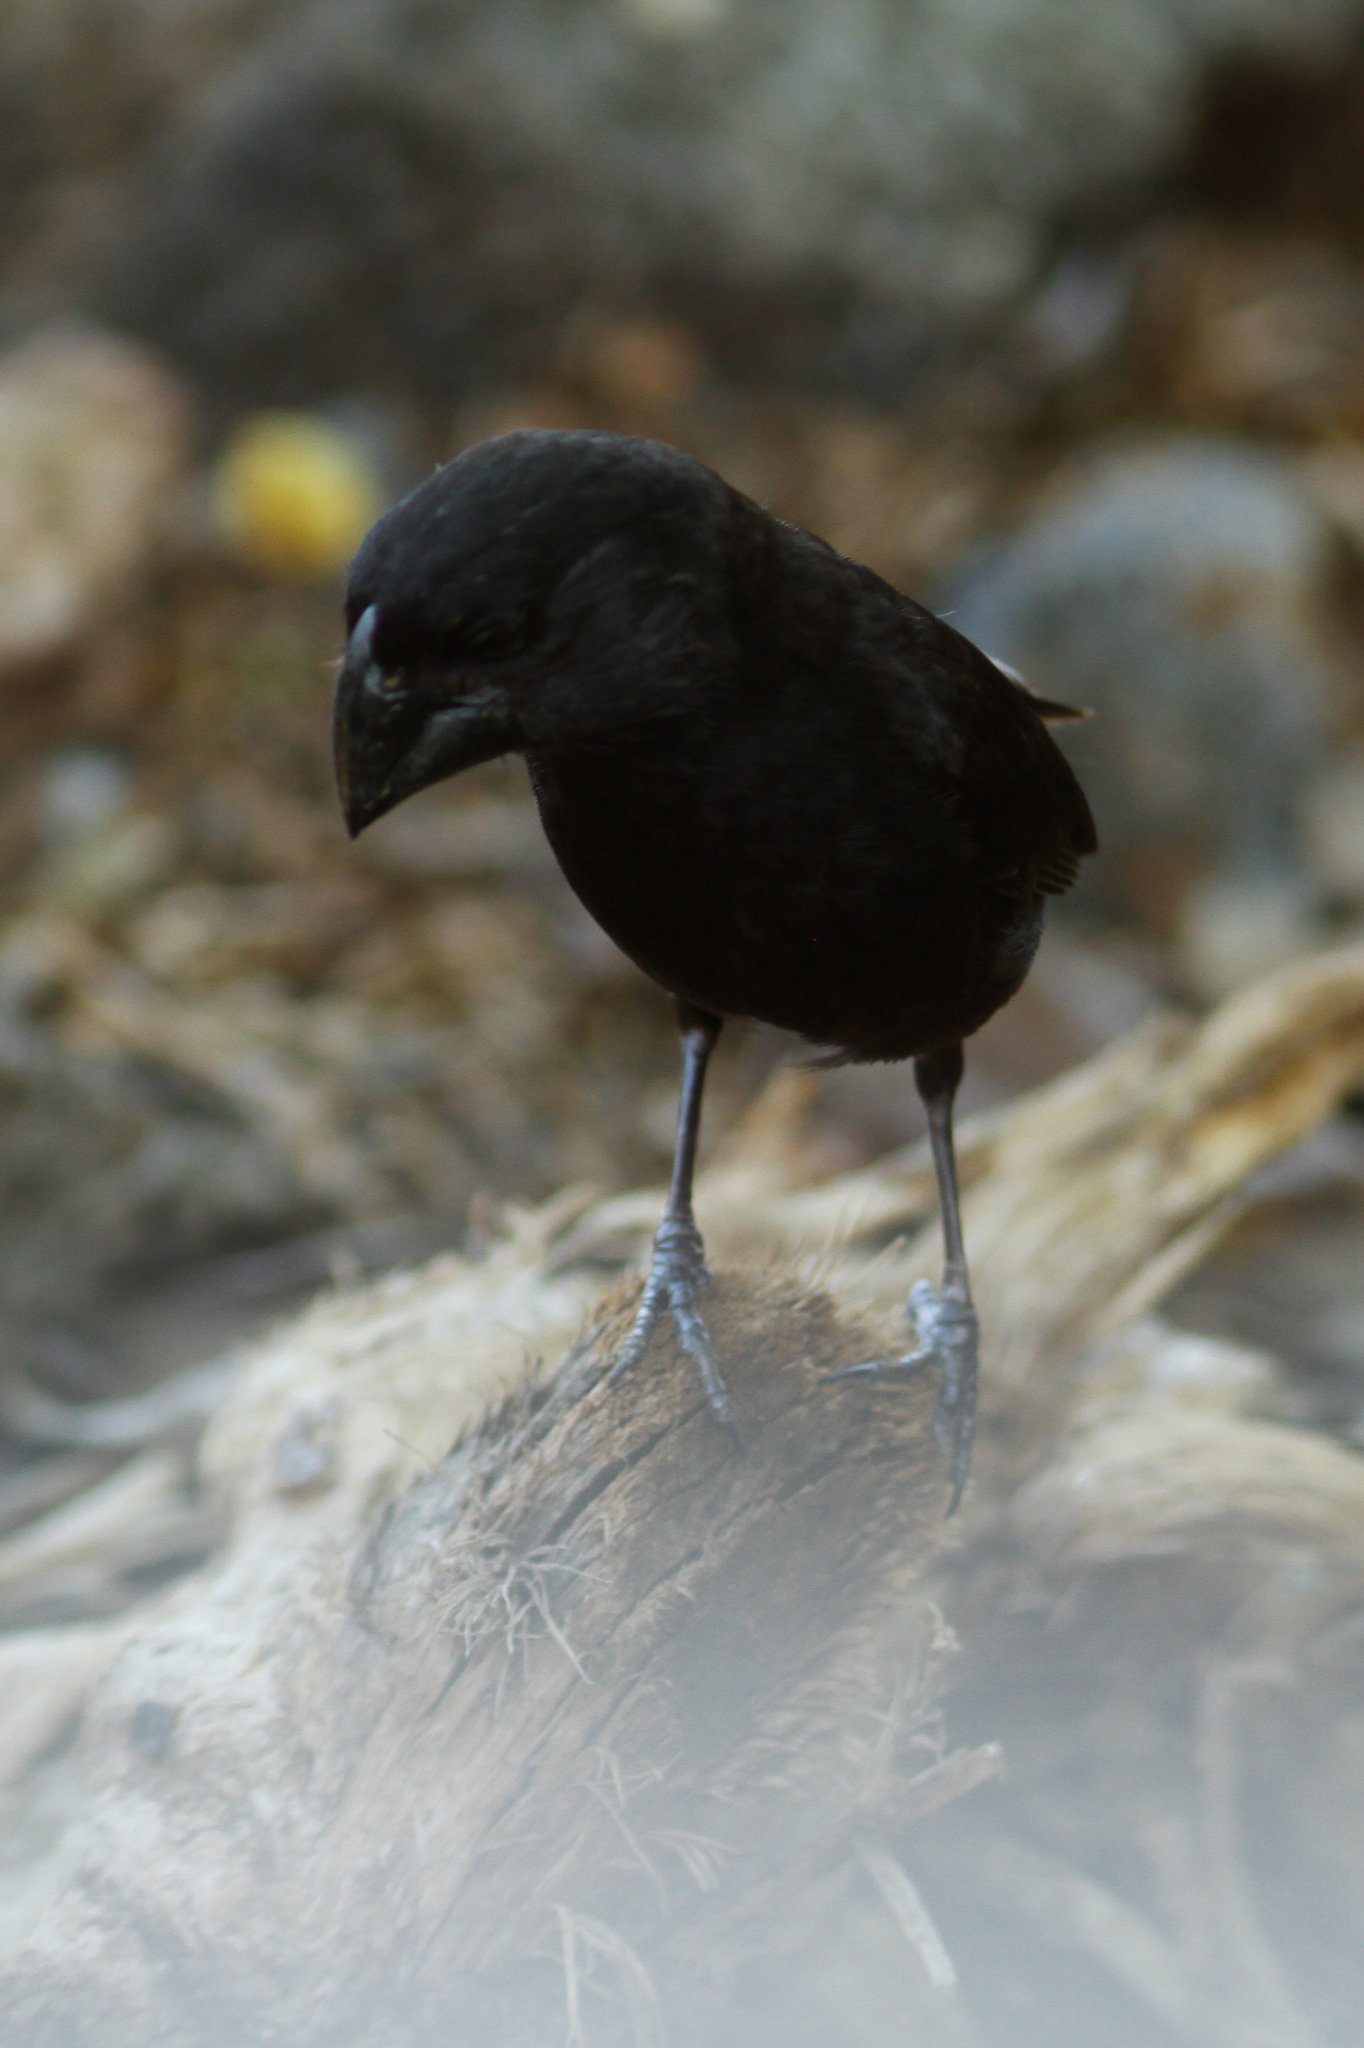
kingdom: Animalia
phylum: Chordata
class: Aves
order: Passeriformes
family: Thraupidae
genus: Geospiza
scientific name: Geospiza magnirostris
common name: Large ground-finch
